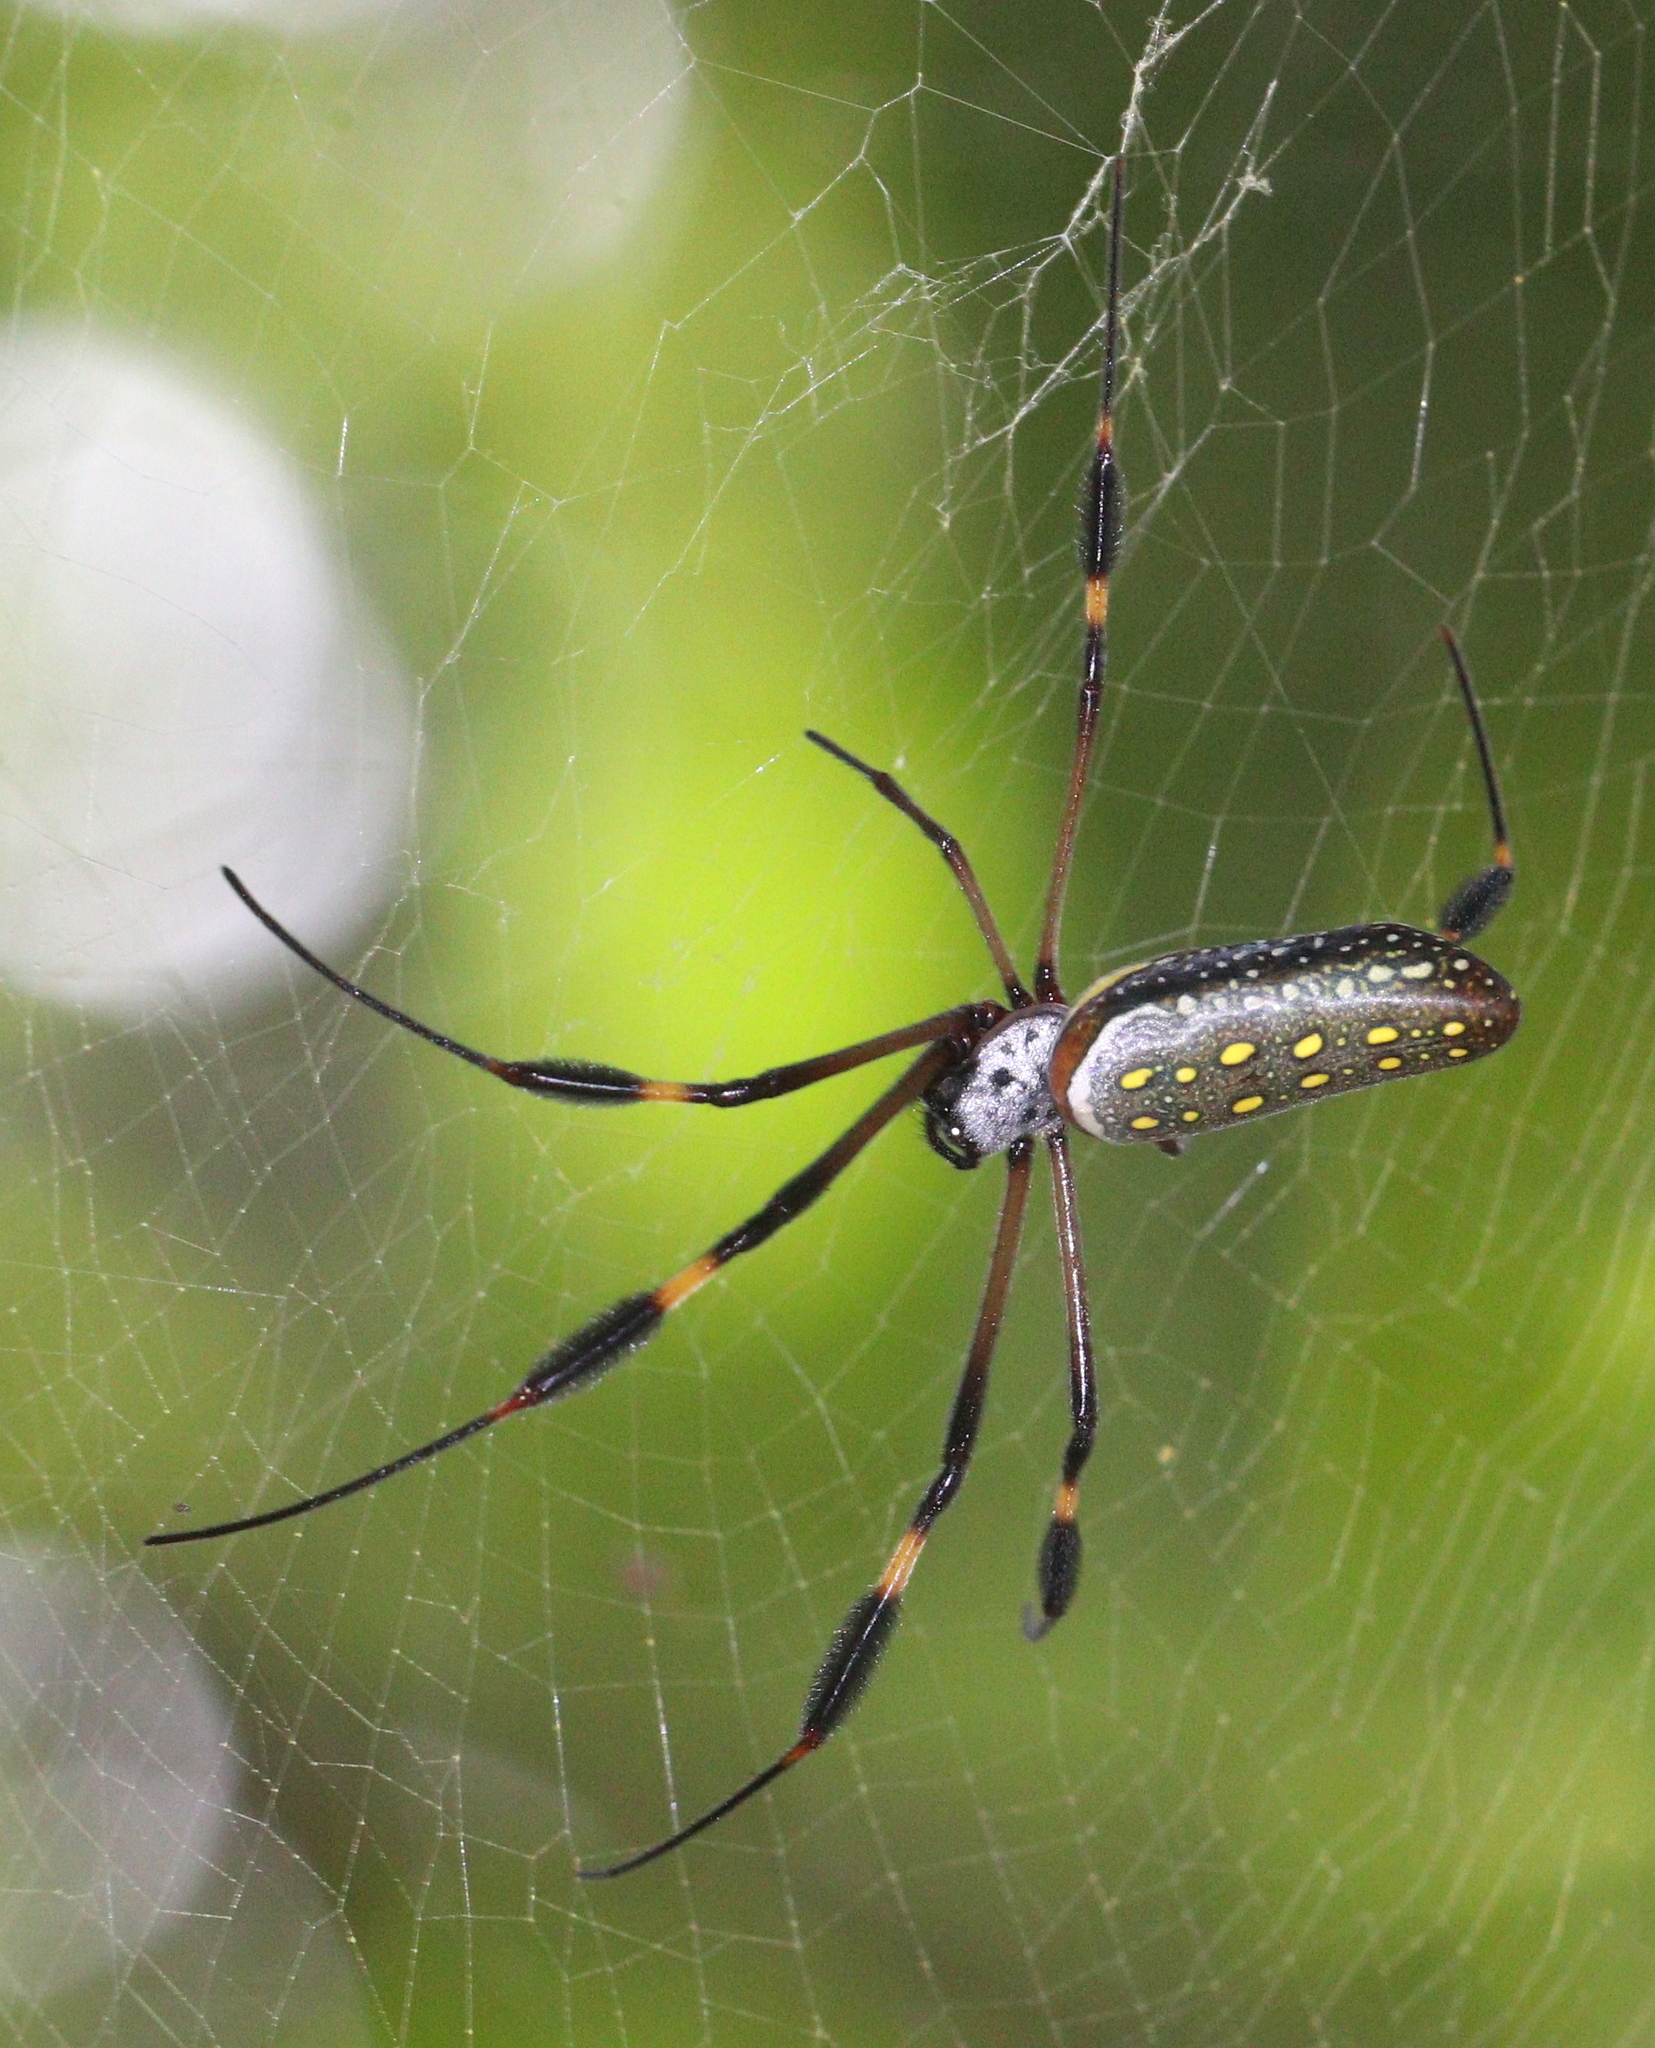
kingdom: Animalia
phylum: Arthropoda
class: Arachnida
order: Araneae
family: Araneidae
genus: Trichonephila
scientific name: Trichonephila clavipes
